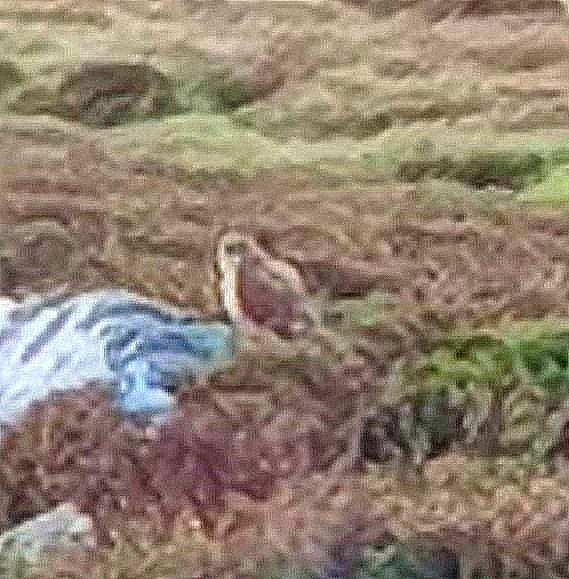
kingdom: Animalia
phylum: Chordata
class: Aves
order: Falconiformes
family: Falconidae
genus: Falco
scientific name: Falco tinnunculus
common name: Common kestrel
